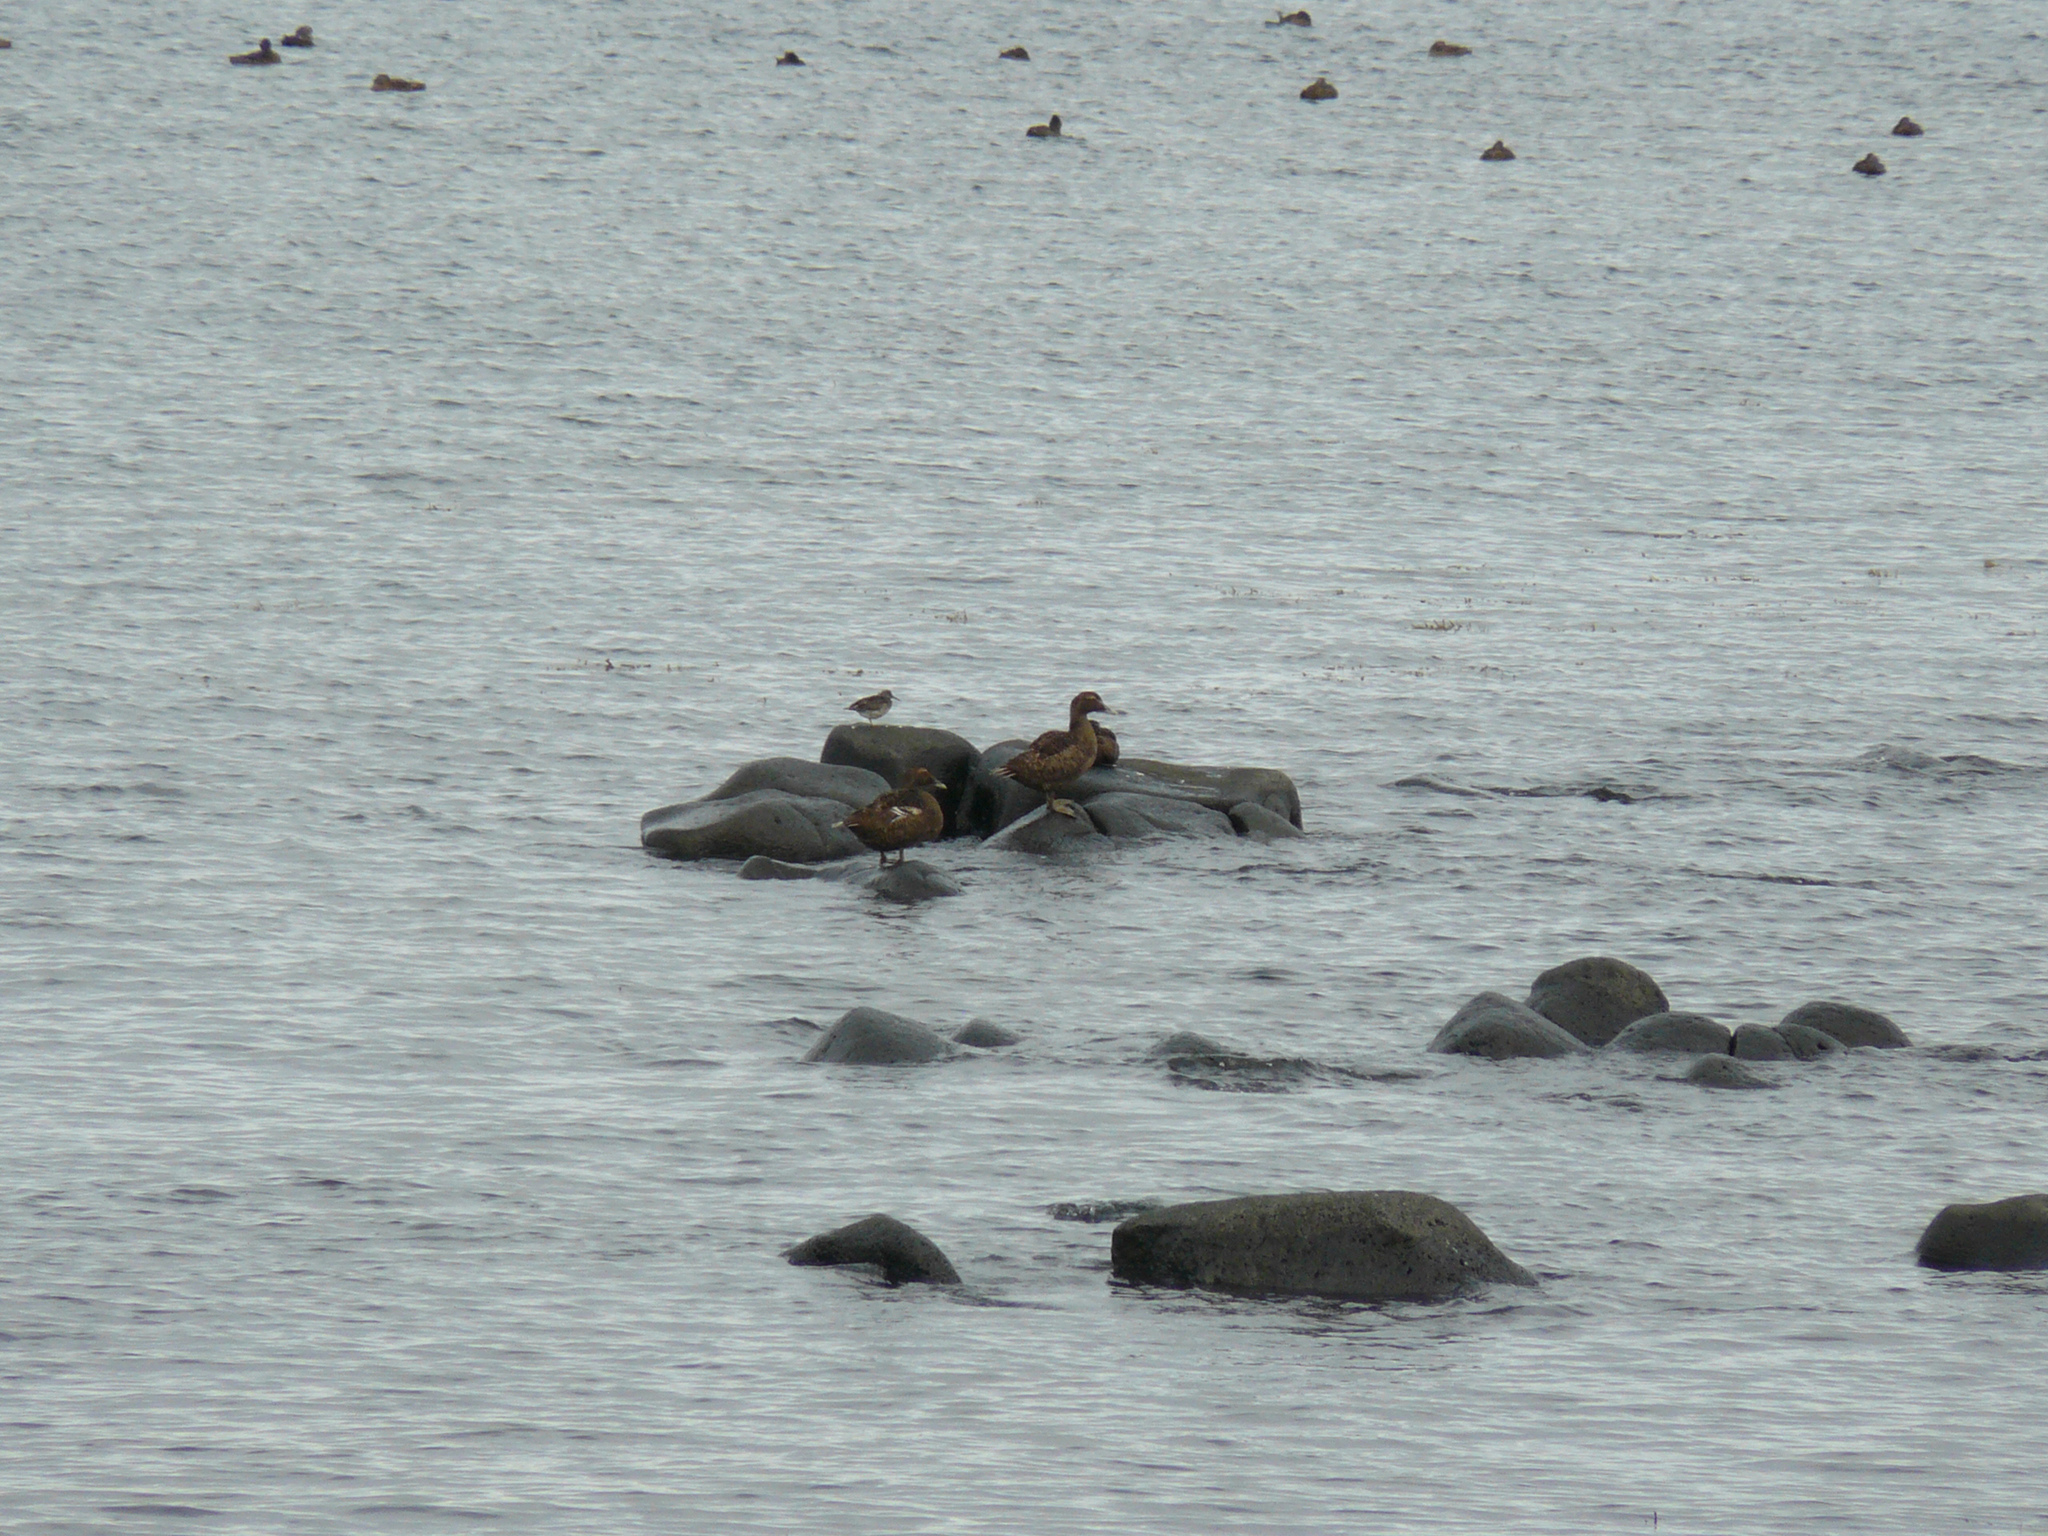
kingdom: Animalia
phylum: Chordata
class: Aves
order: Anseriformes
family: Anatidae
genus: Somateria
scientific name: Somateria mollissima
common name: Common eider
